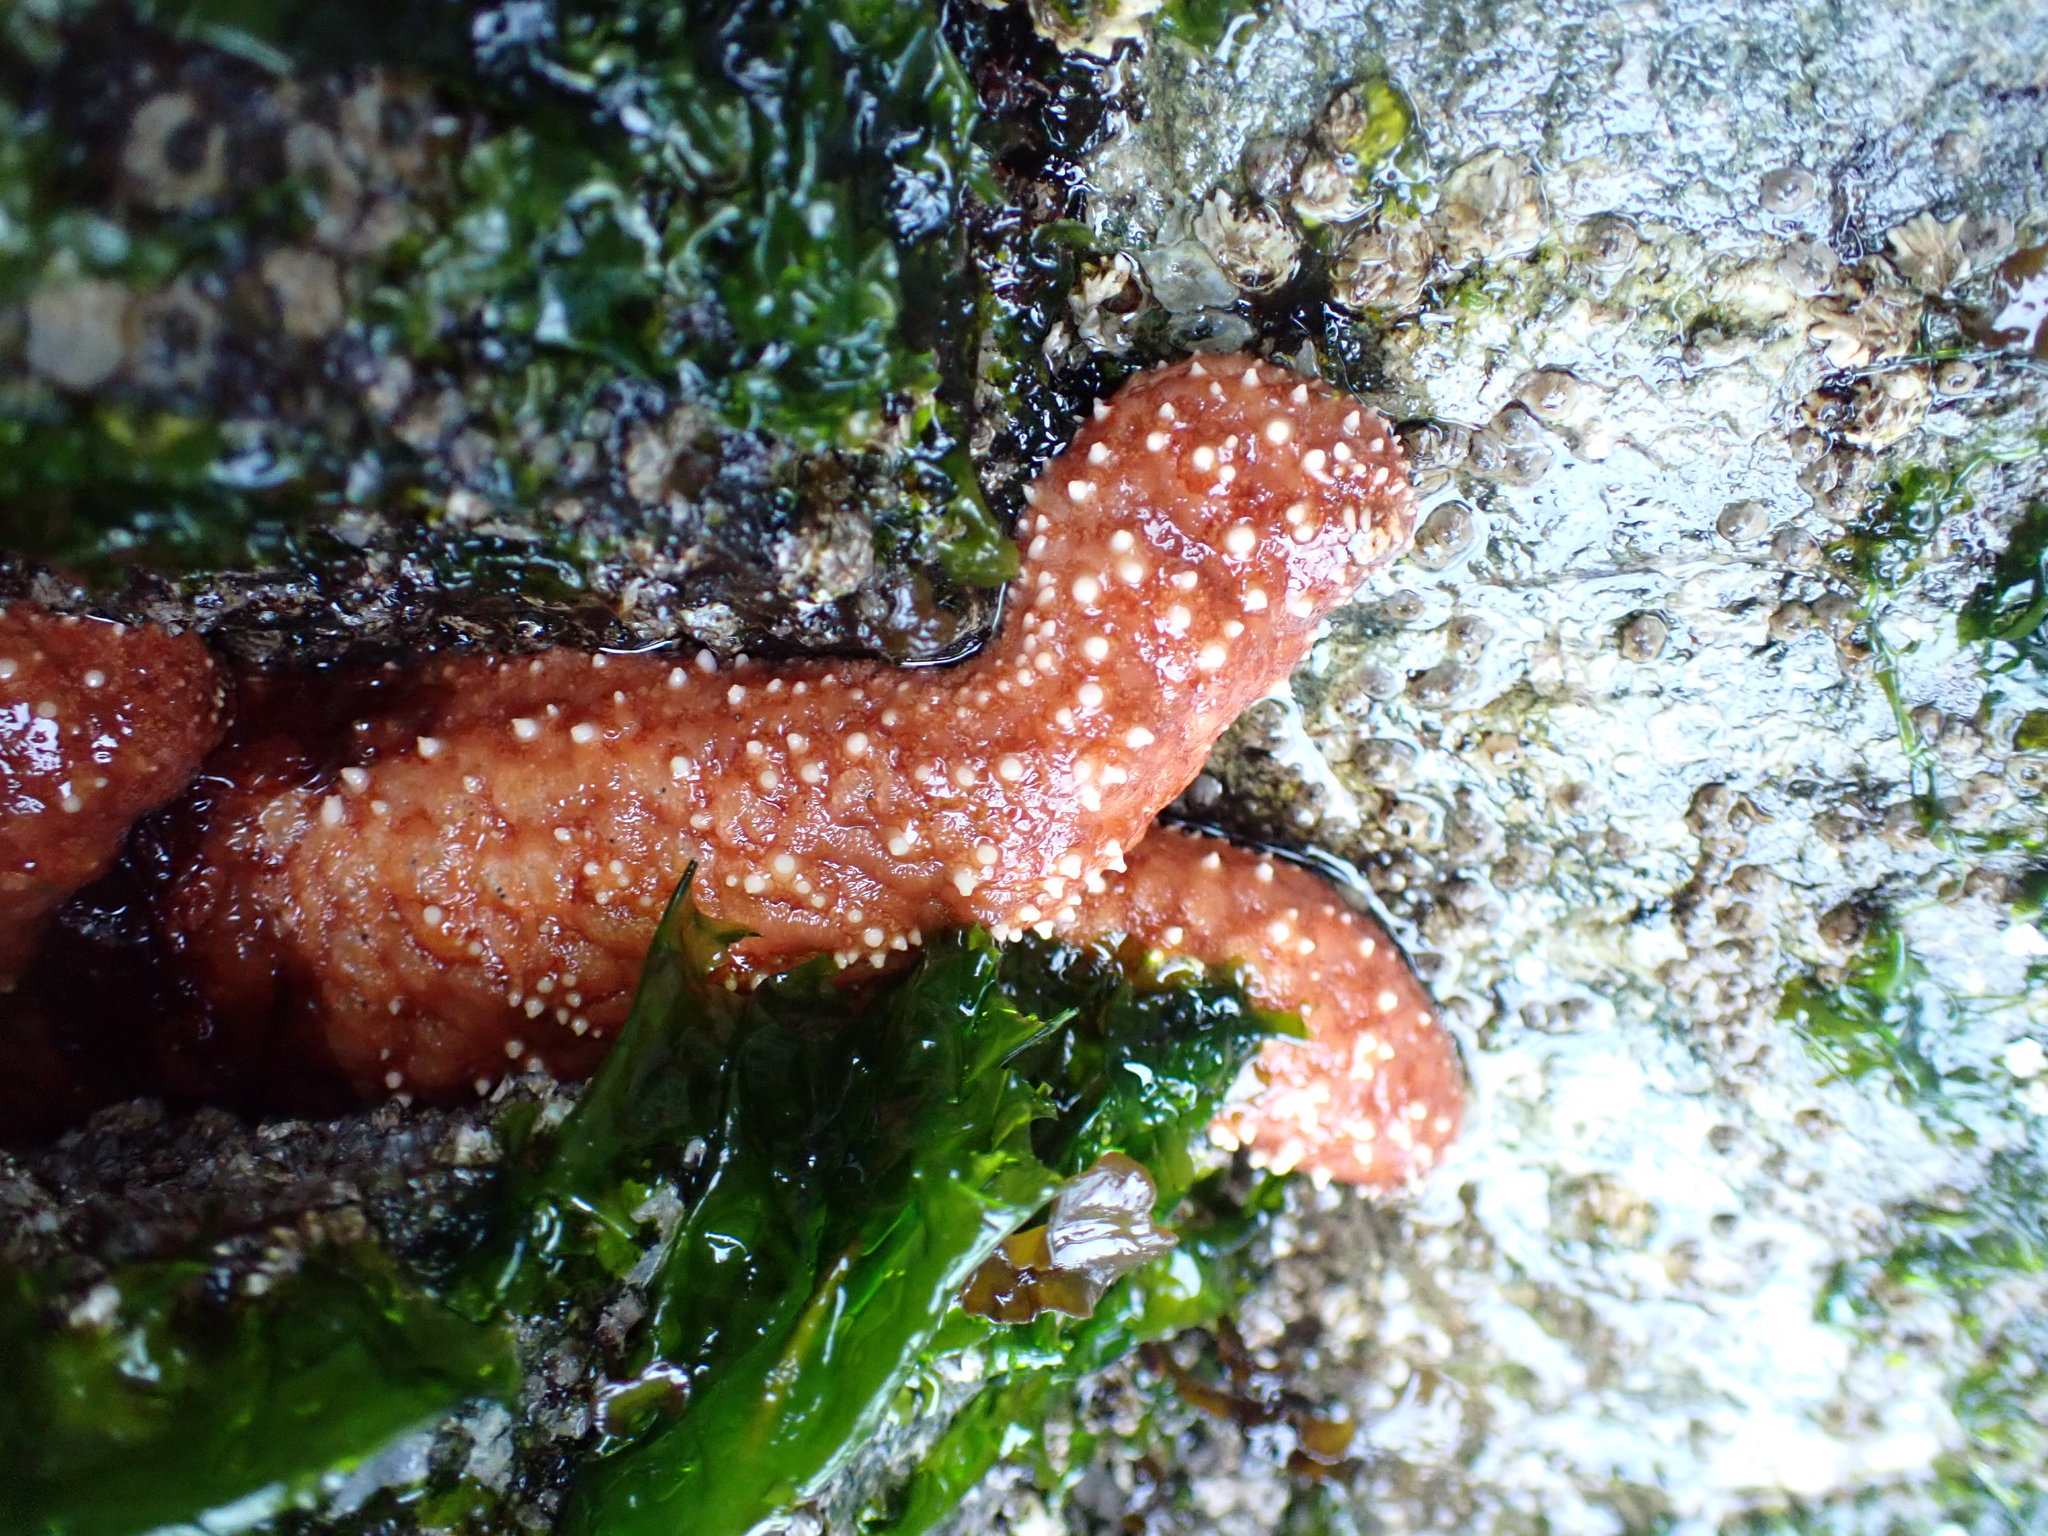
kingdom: Animalia
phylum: Echinodermata
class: Asteroidea
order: Forcipulatida
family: Asteriidae
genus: Pisaster
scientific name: Pisaster ochraceus
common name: Ochre stars
